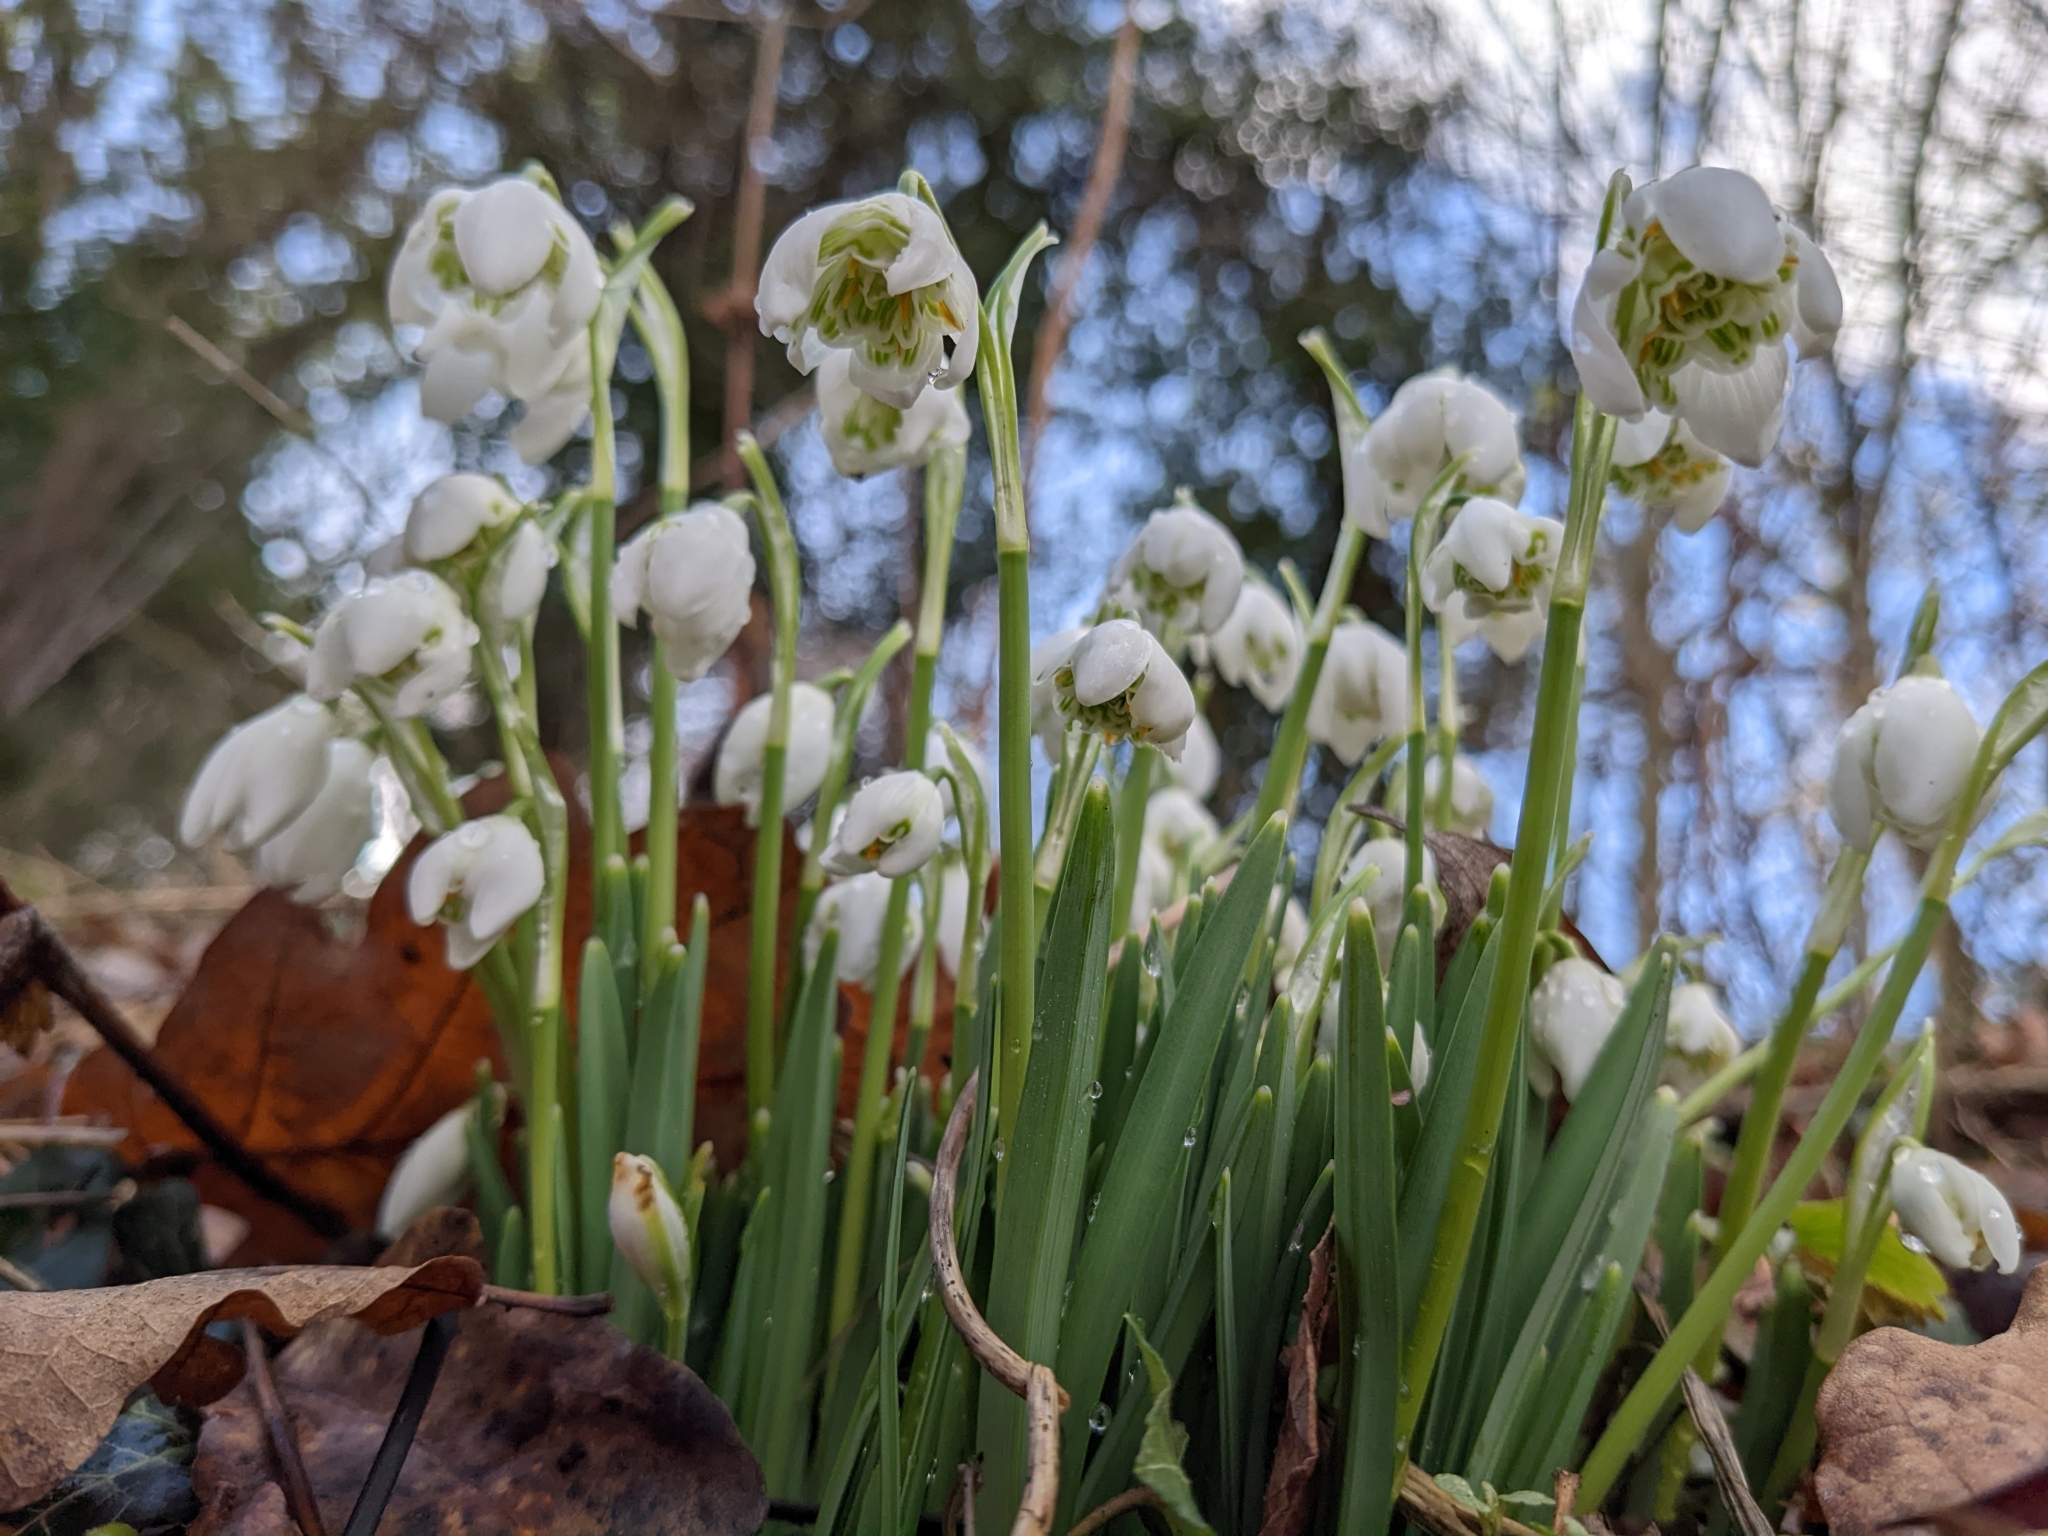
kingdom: Plantae
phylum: Tracheophyta
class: Liliopsida
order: Asparagales
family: Amaryllidaceae
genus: Galanthus
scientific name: Galanthus nivalis
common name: Snowdrop
